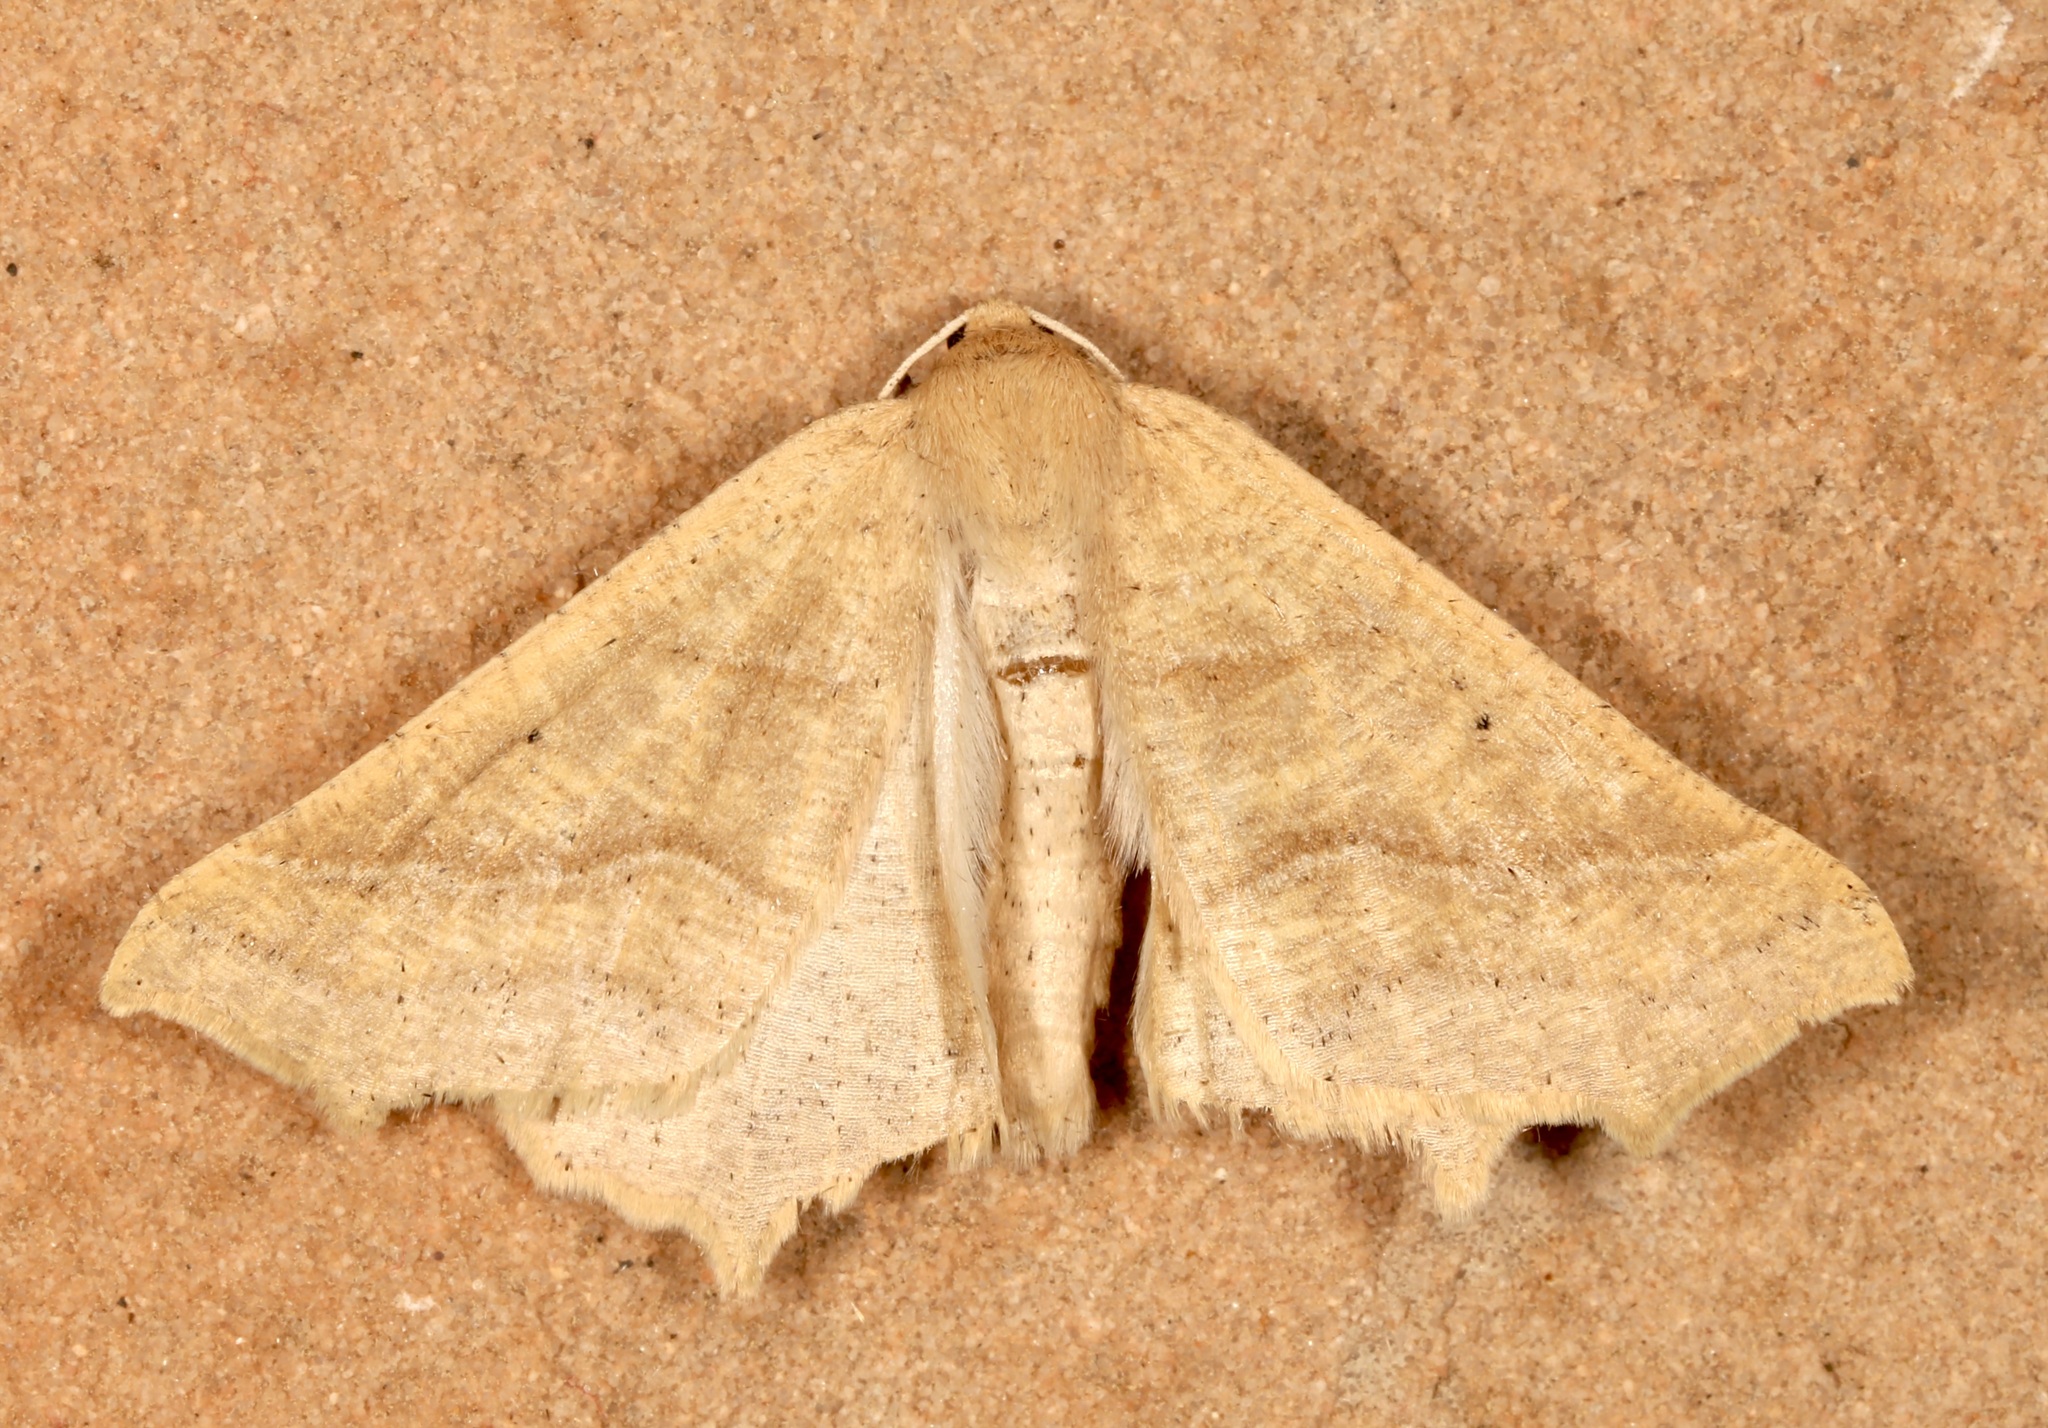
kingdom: Animalia
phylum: Arthropoda
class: Insecta
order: Lepidoptera
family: Geometridae
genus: Prochoerodes
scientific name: Prochoerodes truxaliata
